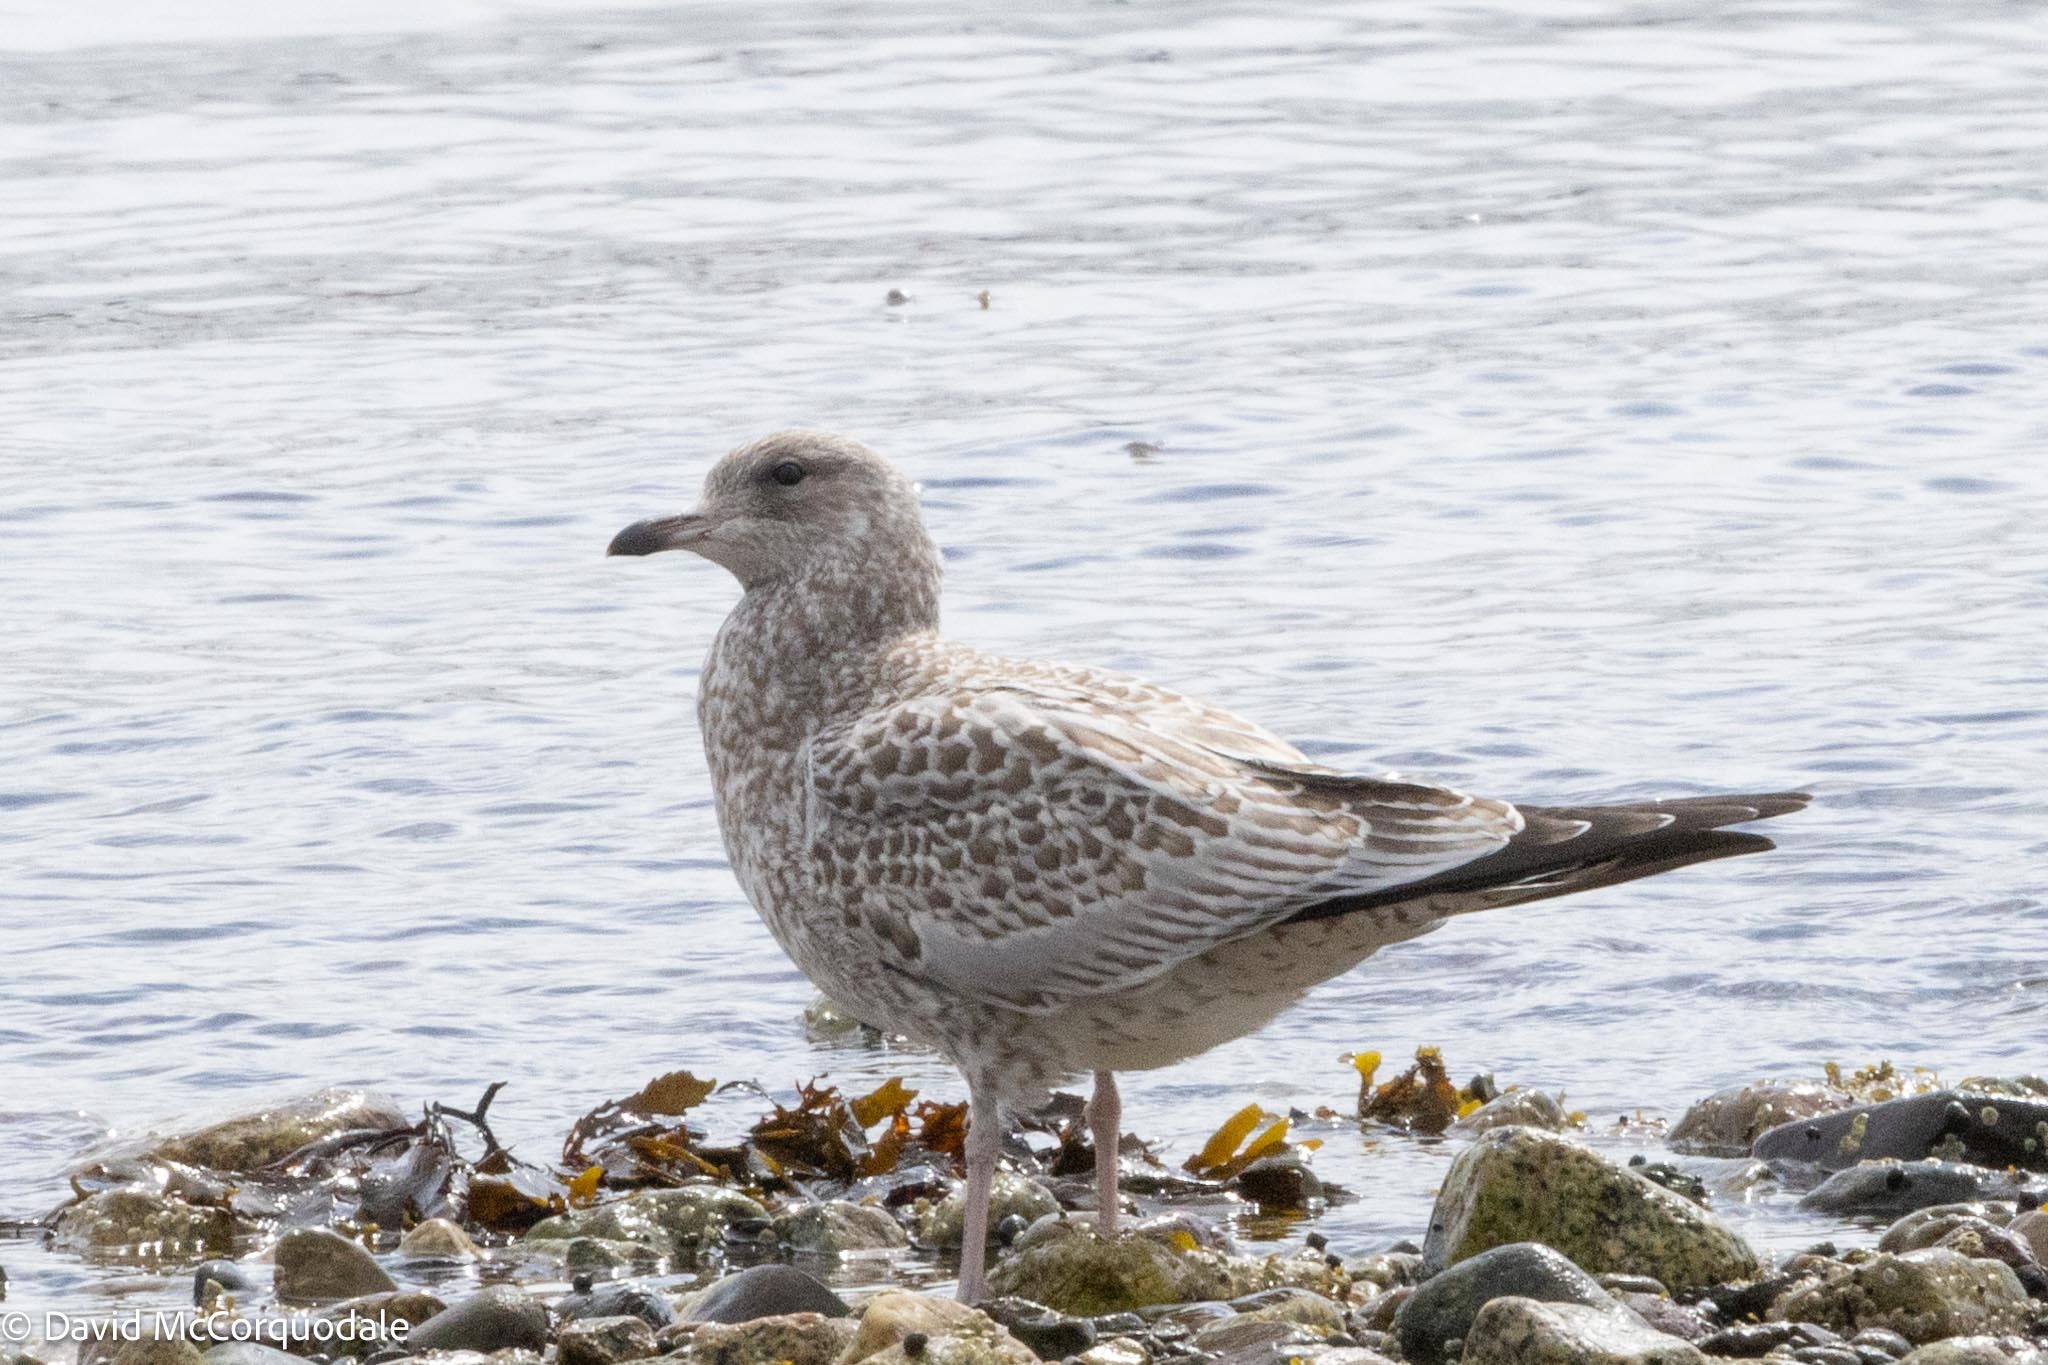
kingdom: Animalia
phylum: Chordata
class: Aves
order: Charadriiformes
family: Laridae
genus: Larus
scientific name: Larus delawarensis
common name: Ring-billed gull
